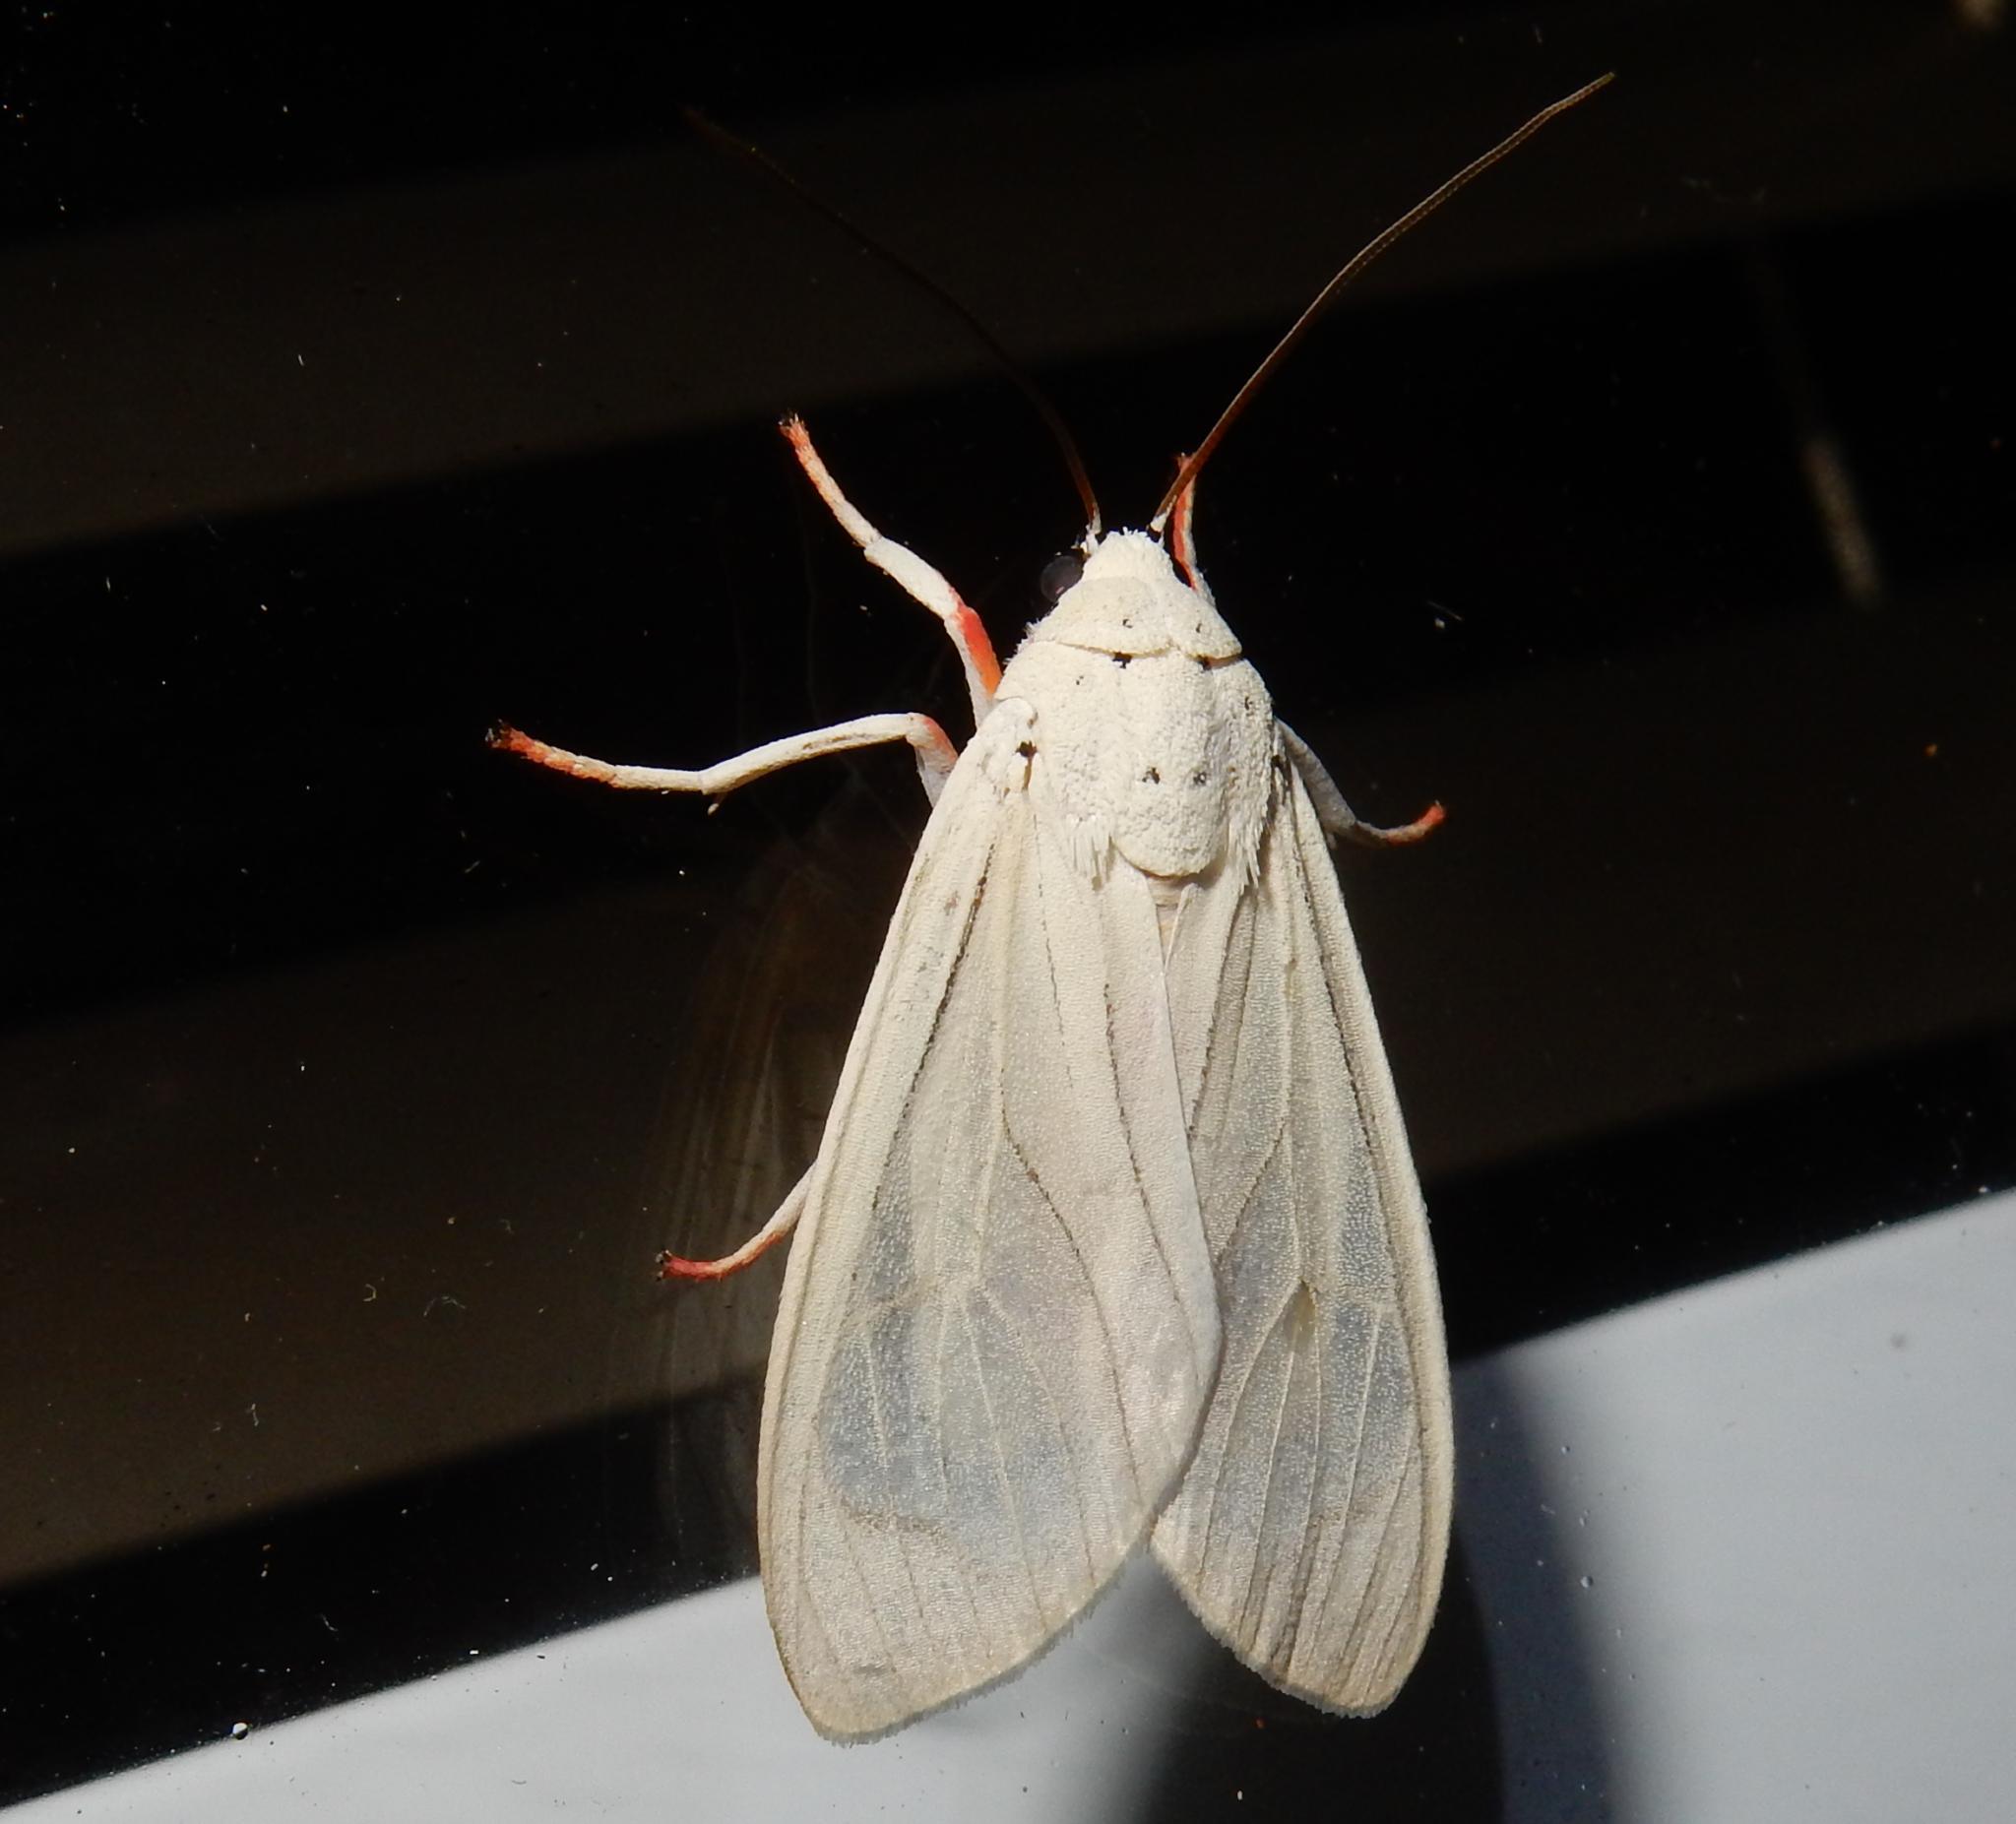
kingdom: Animalia
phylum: Arthropoda
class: Insecta
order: Lepidoptera
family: Erebidae
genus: Amerila
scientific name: Amerila lupia
